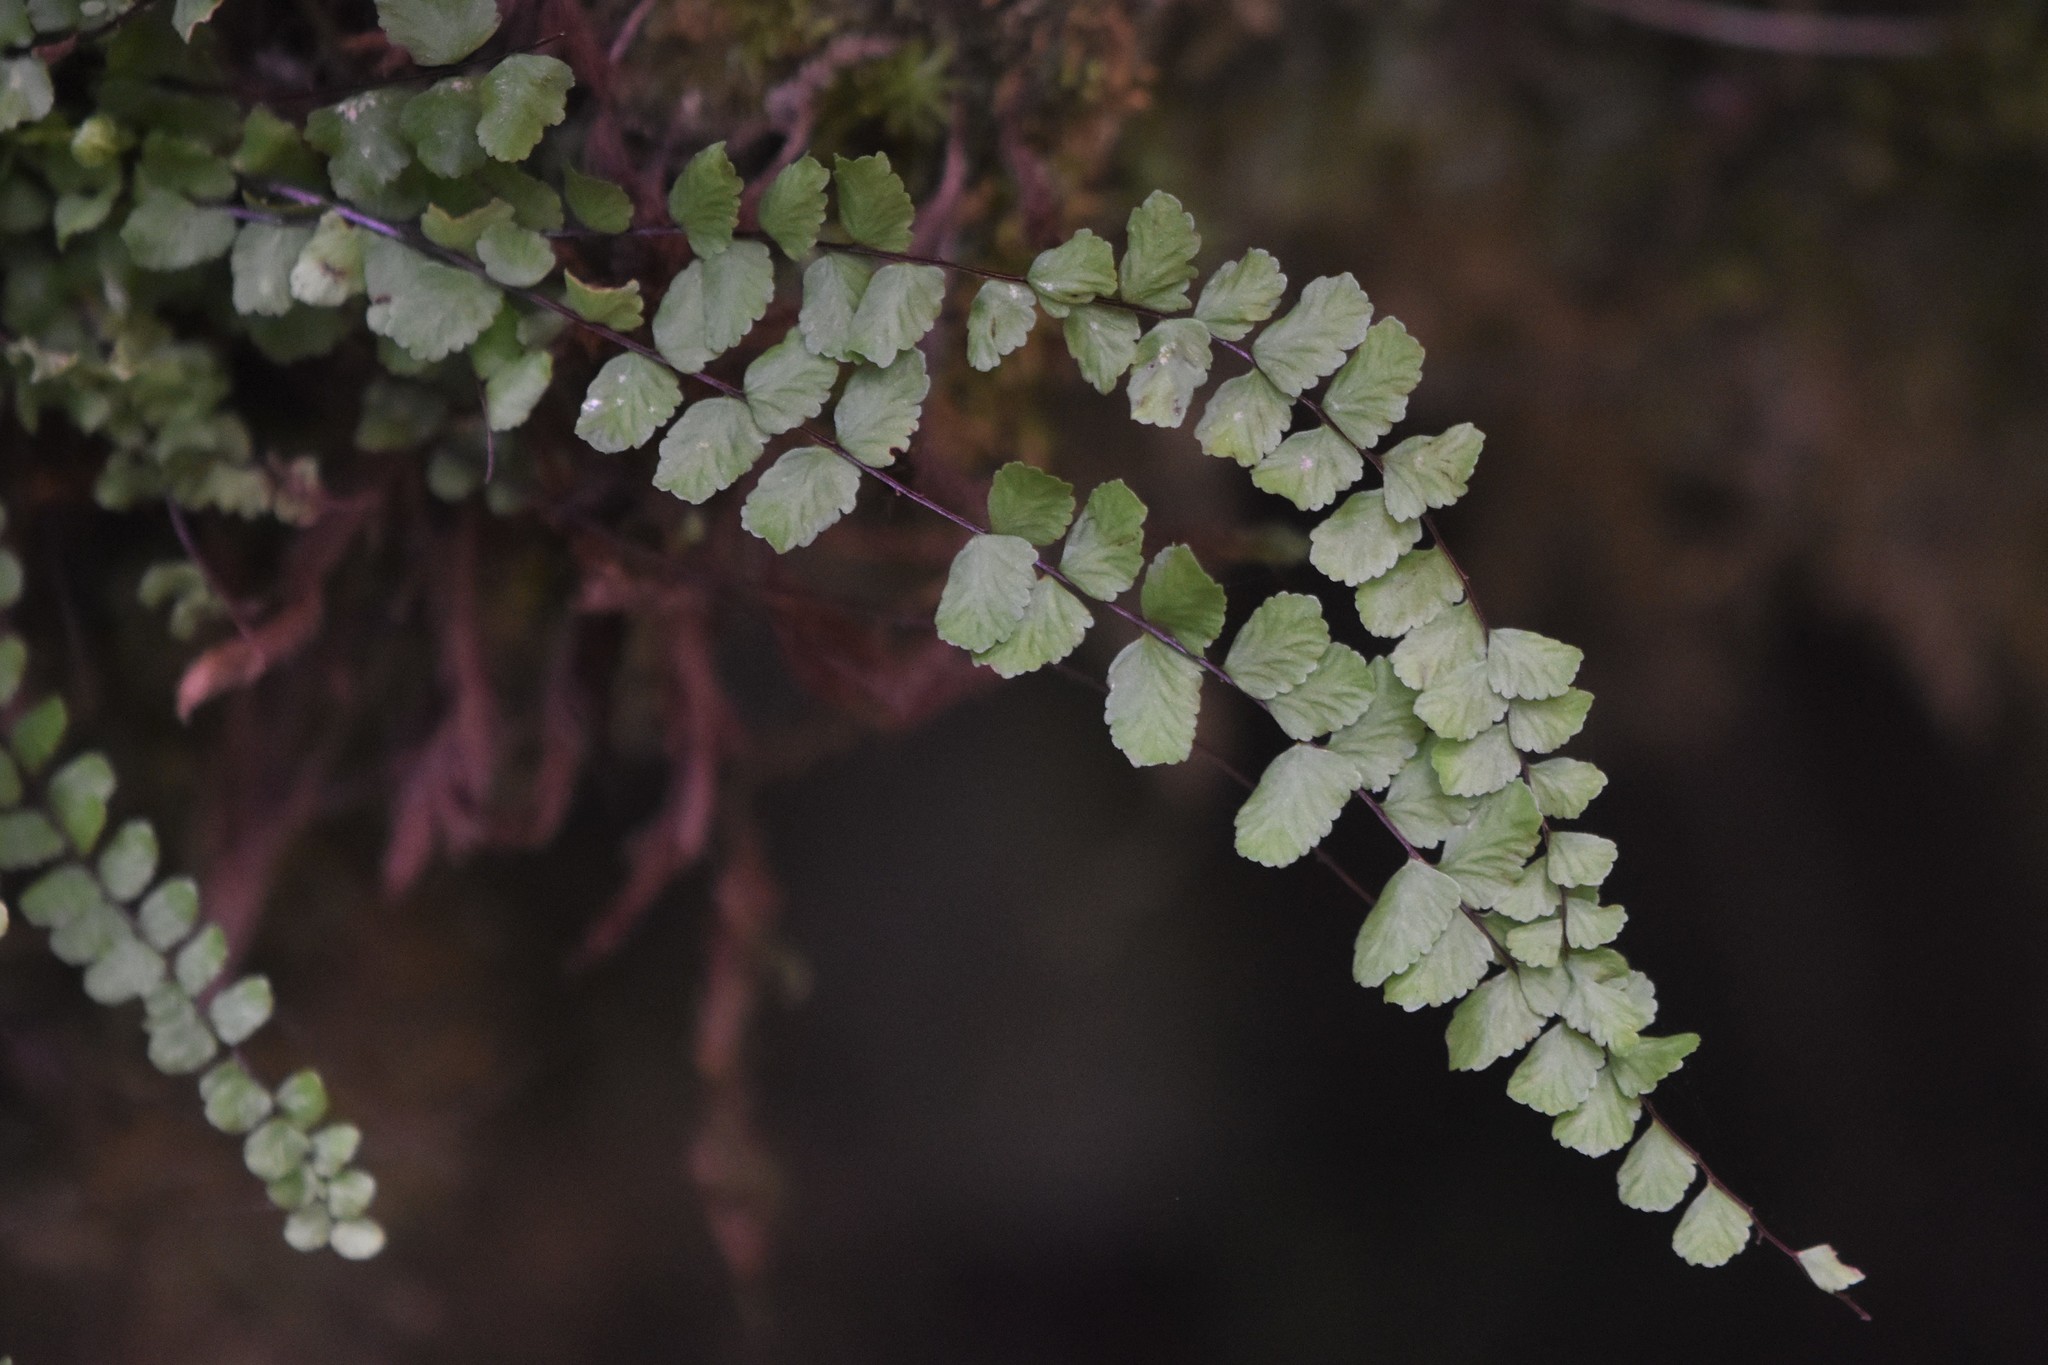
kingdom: Plantae
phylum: Tracheophyta
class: Polypodiopsida
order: Polypodiales
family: Aspleniaceae
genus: Asplenium
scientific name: Asplenium trichomanes
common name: Maidenhair spleenwort
